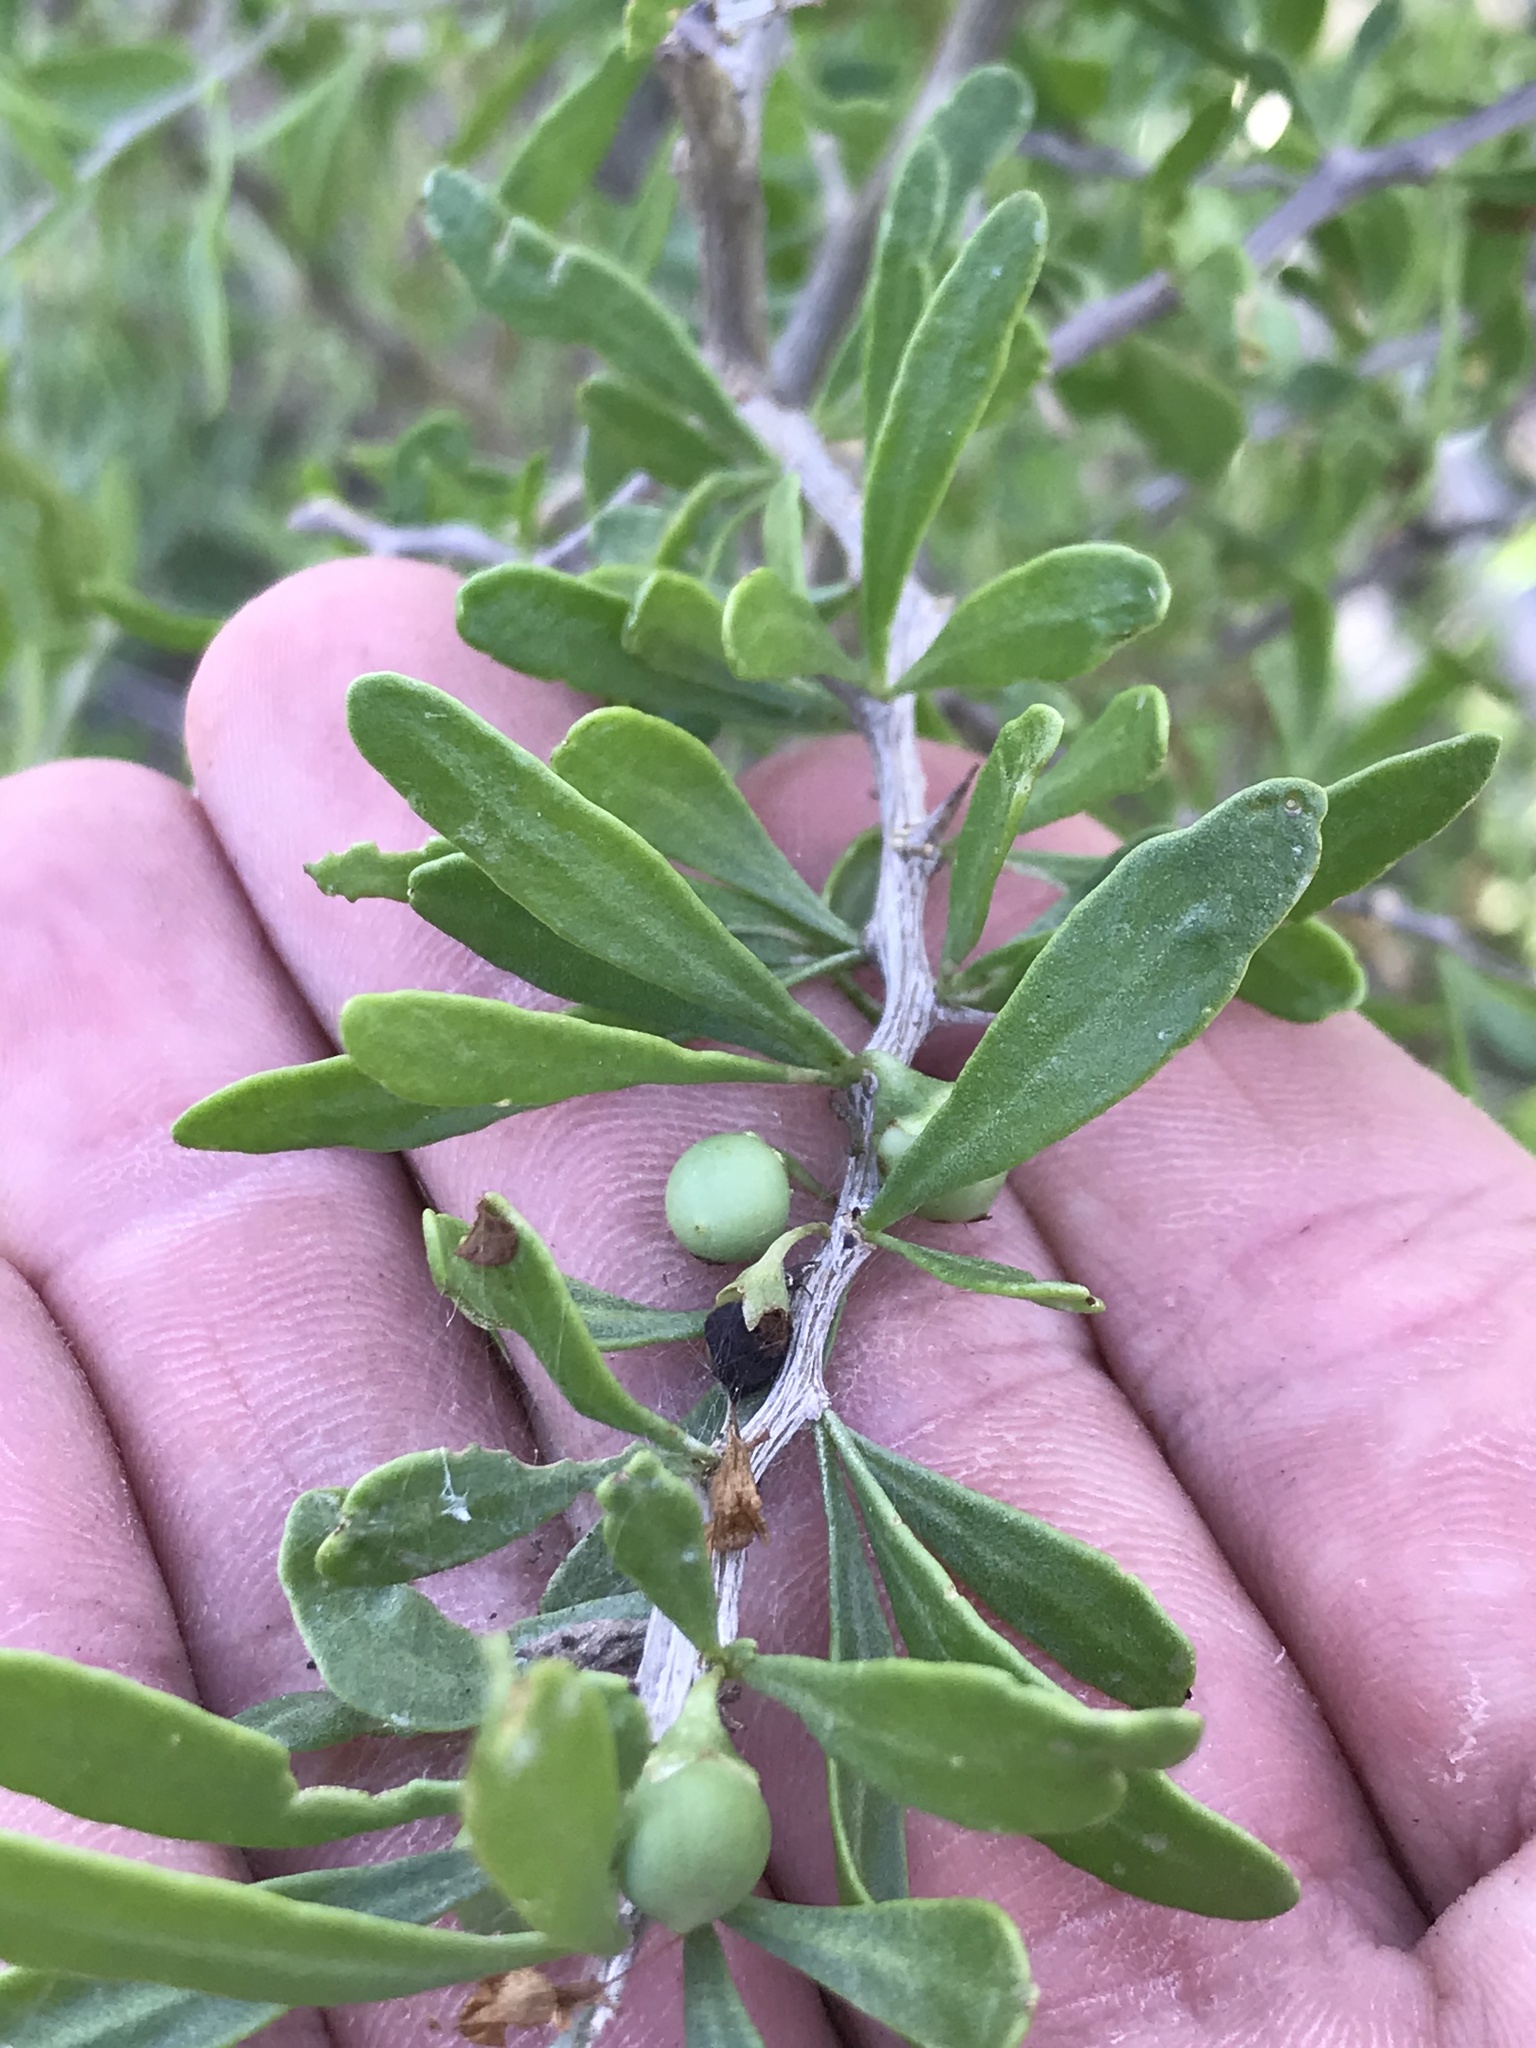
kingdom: Plantae
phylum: Tracheophyta
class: Magnoliopsida
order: Solanales
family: Solanaceae
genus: Lycium
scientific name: Lycium berlandieri
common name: Berlandier wolfberry
